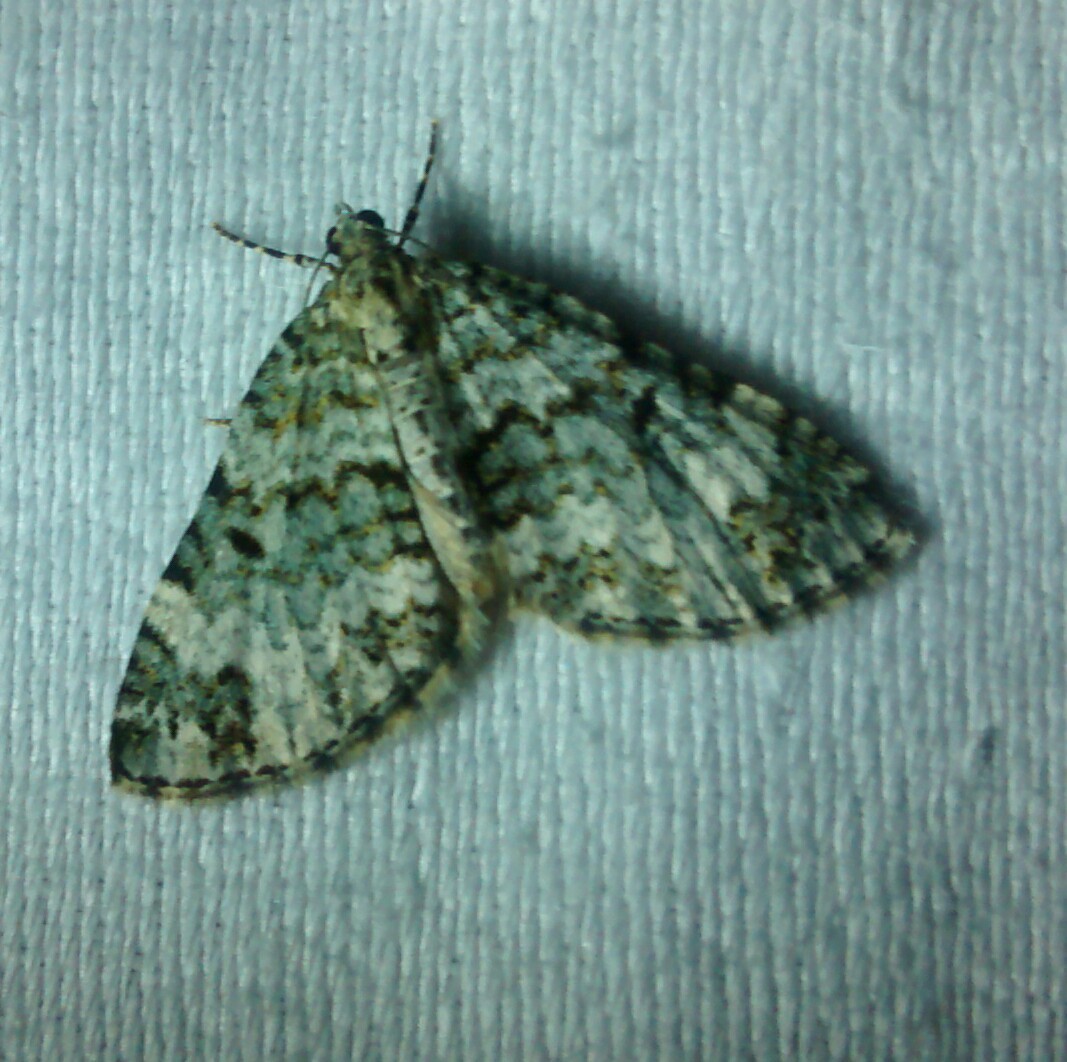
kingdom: Animalia
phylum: Arthropoda
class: Insecta
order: Lepidoptera
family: Geometridae
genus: Spargania
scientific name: Spargania magnoliata
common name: Double-banded carpet
